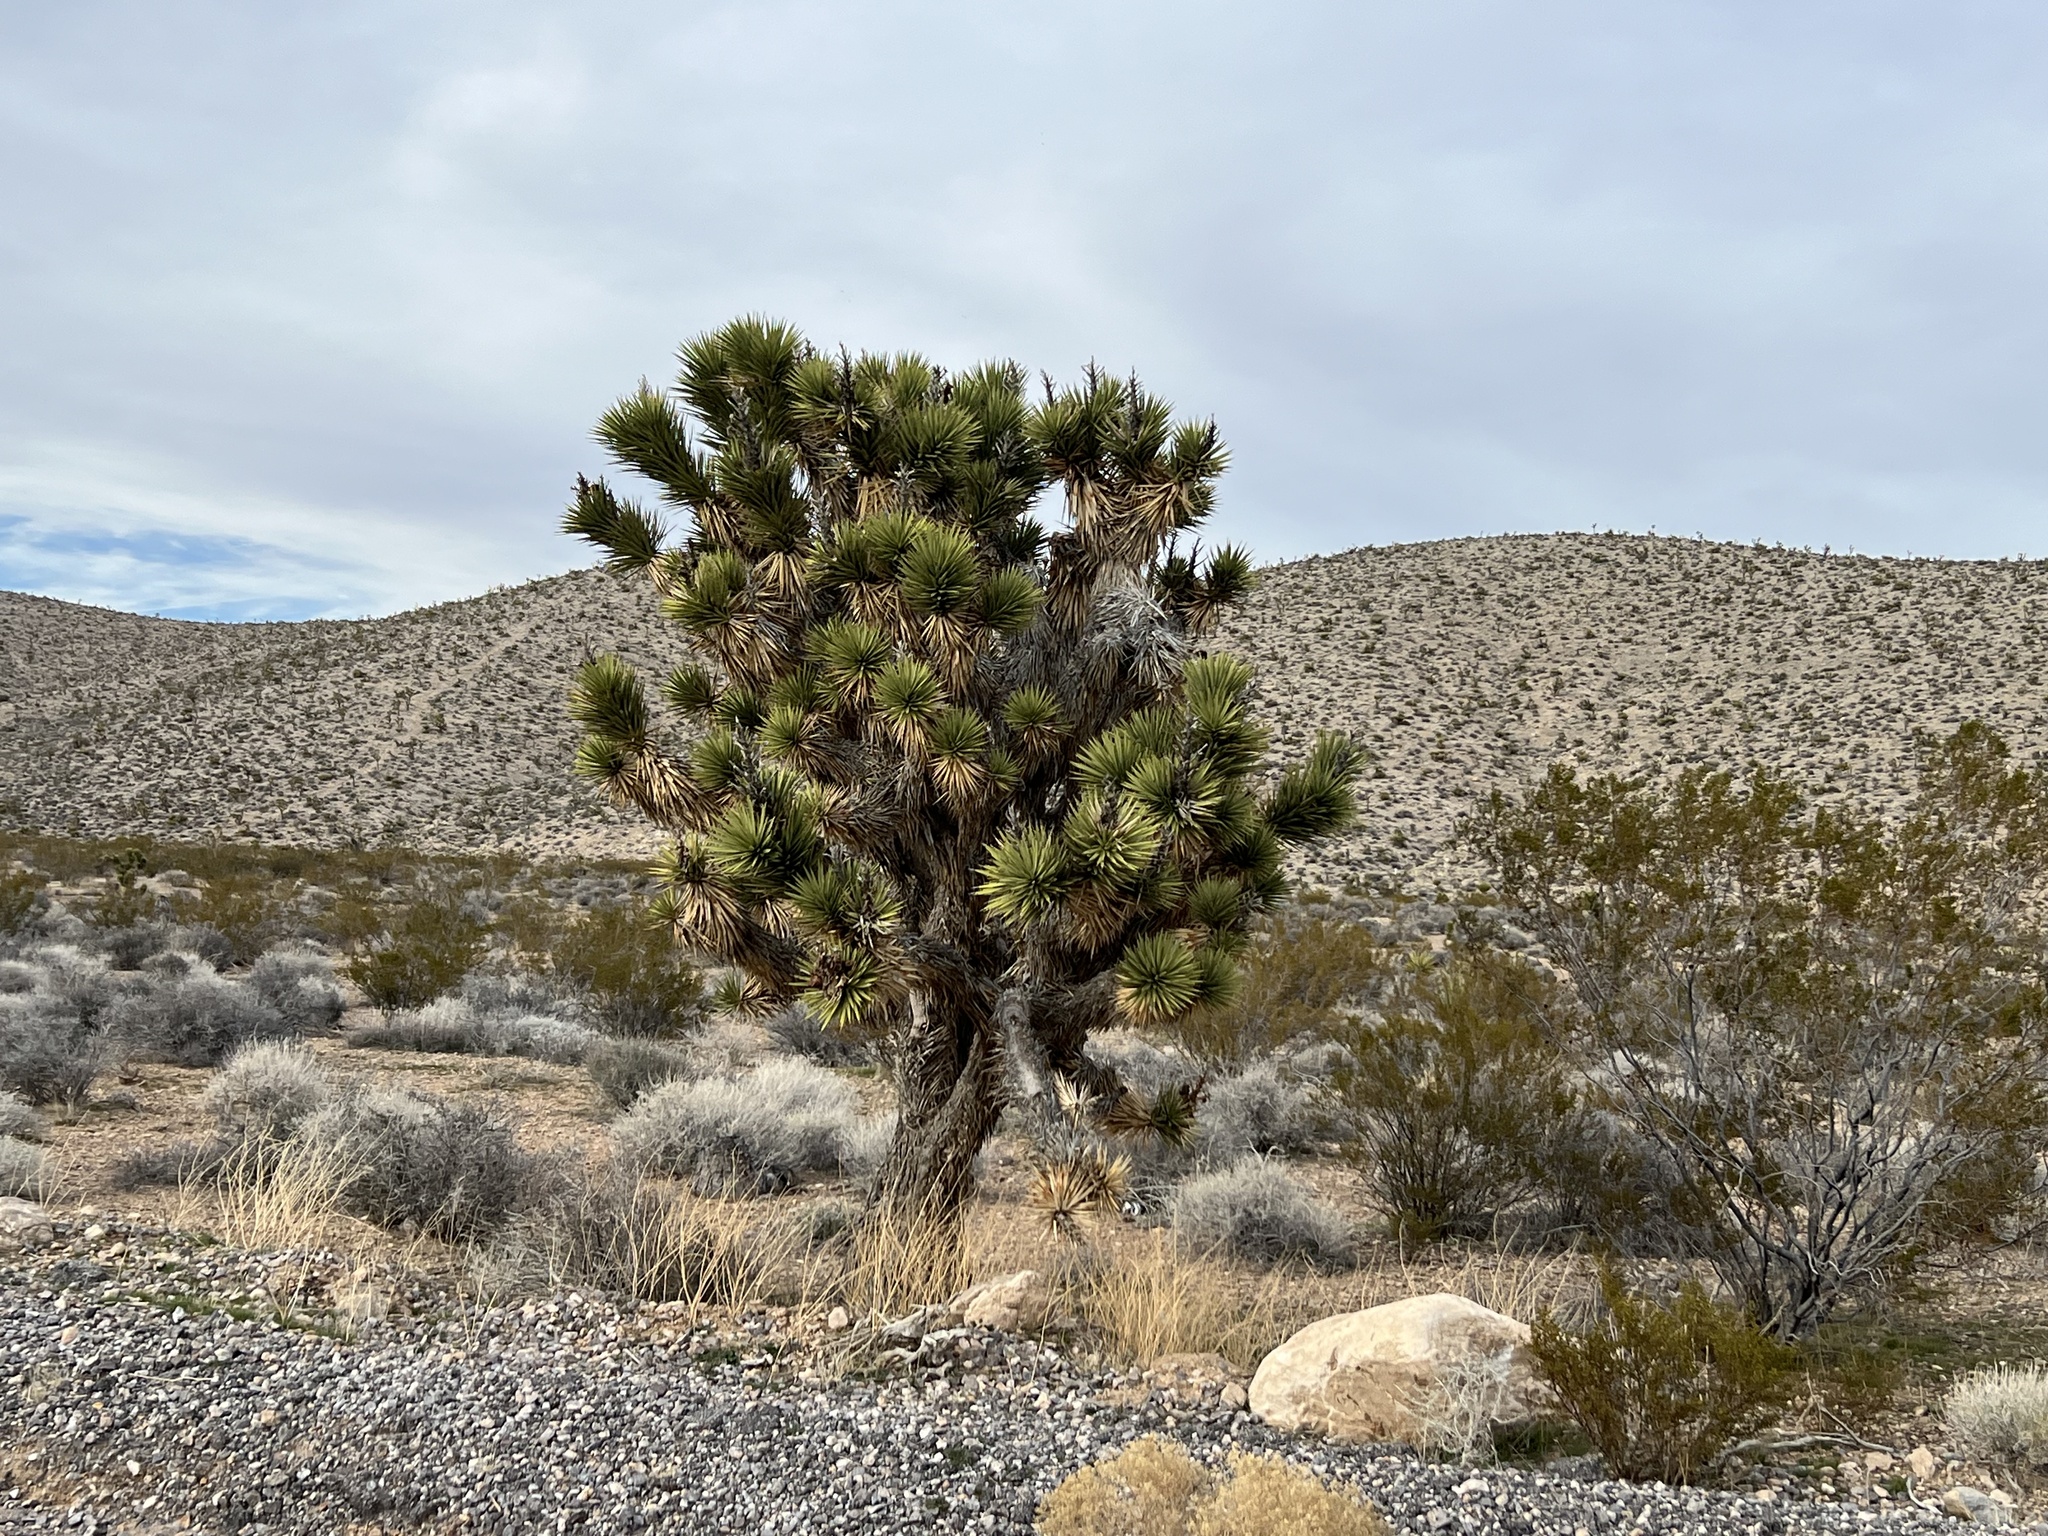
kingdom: Plantae
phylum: Tracheophyta
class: Liliopsida
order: Asparagales
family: Asparagaceae
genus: Yucca
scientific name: Yucca brevifolia
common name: Joshua tree
